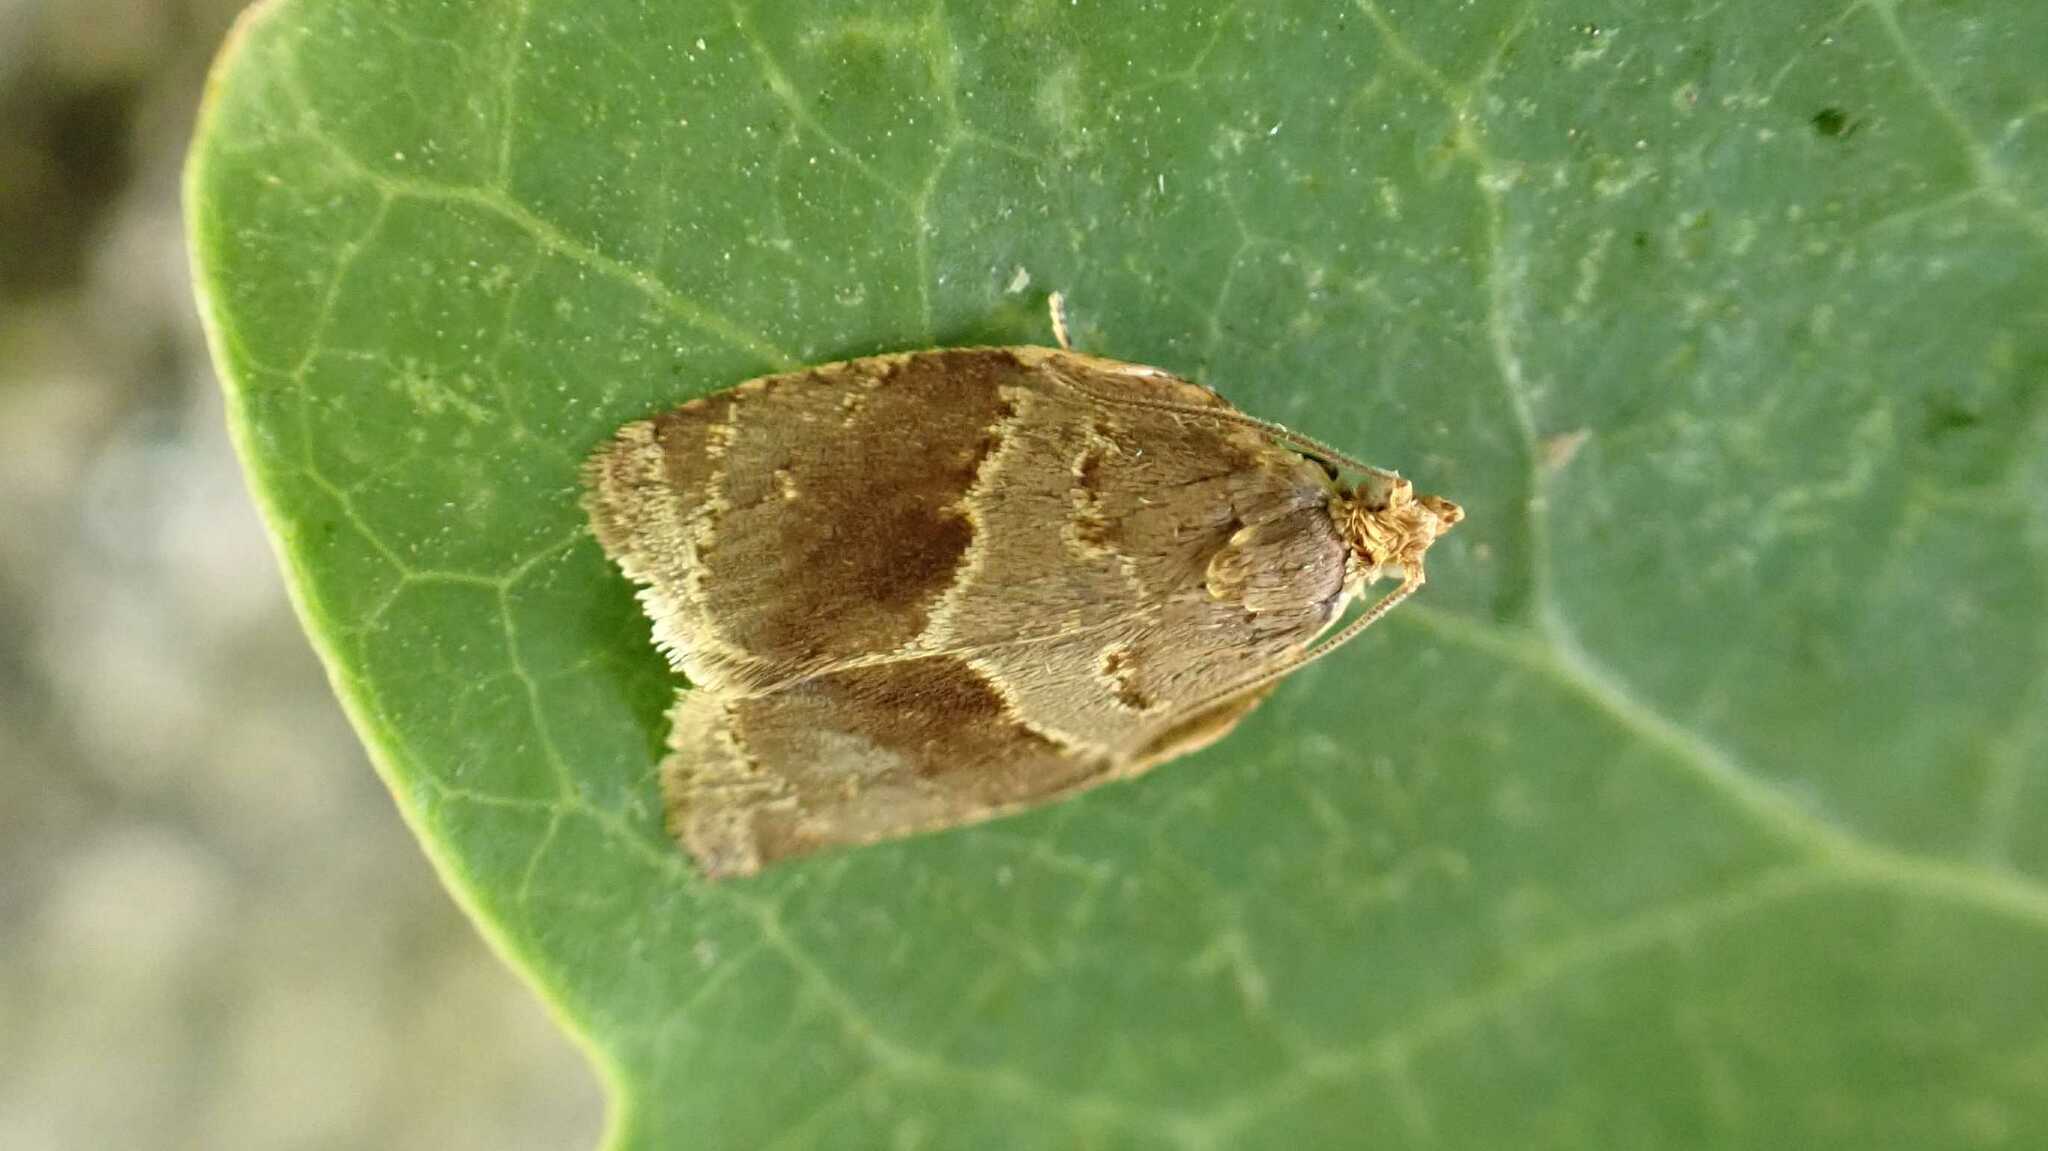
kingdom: Animalia
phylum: Arthropoda
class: Insecta
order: Lepidoptera
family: Tortricidae
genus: Clepsis
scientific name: Clepsis dumicolana
